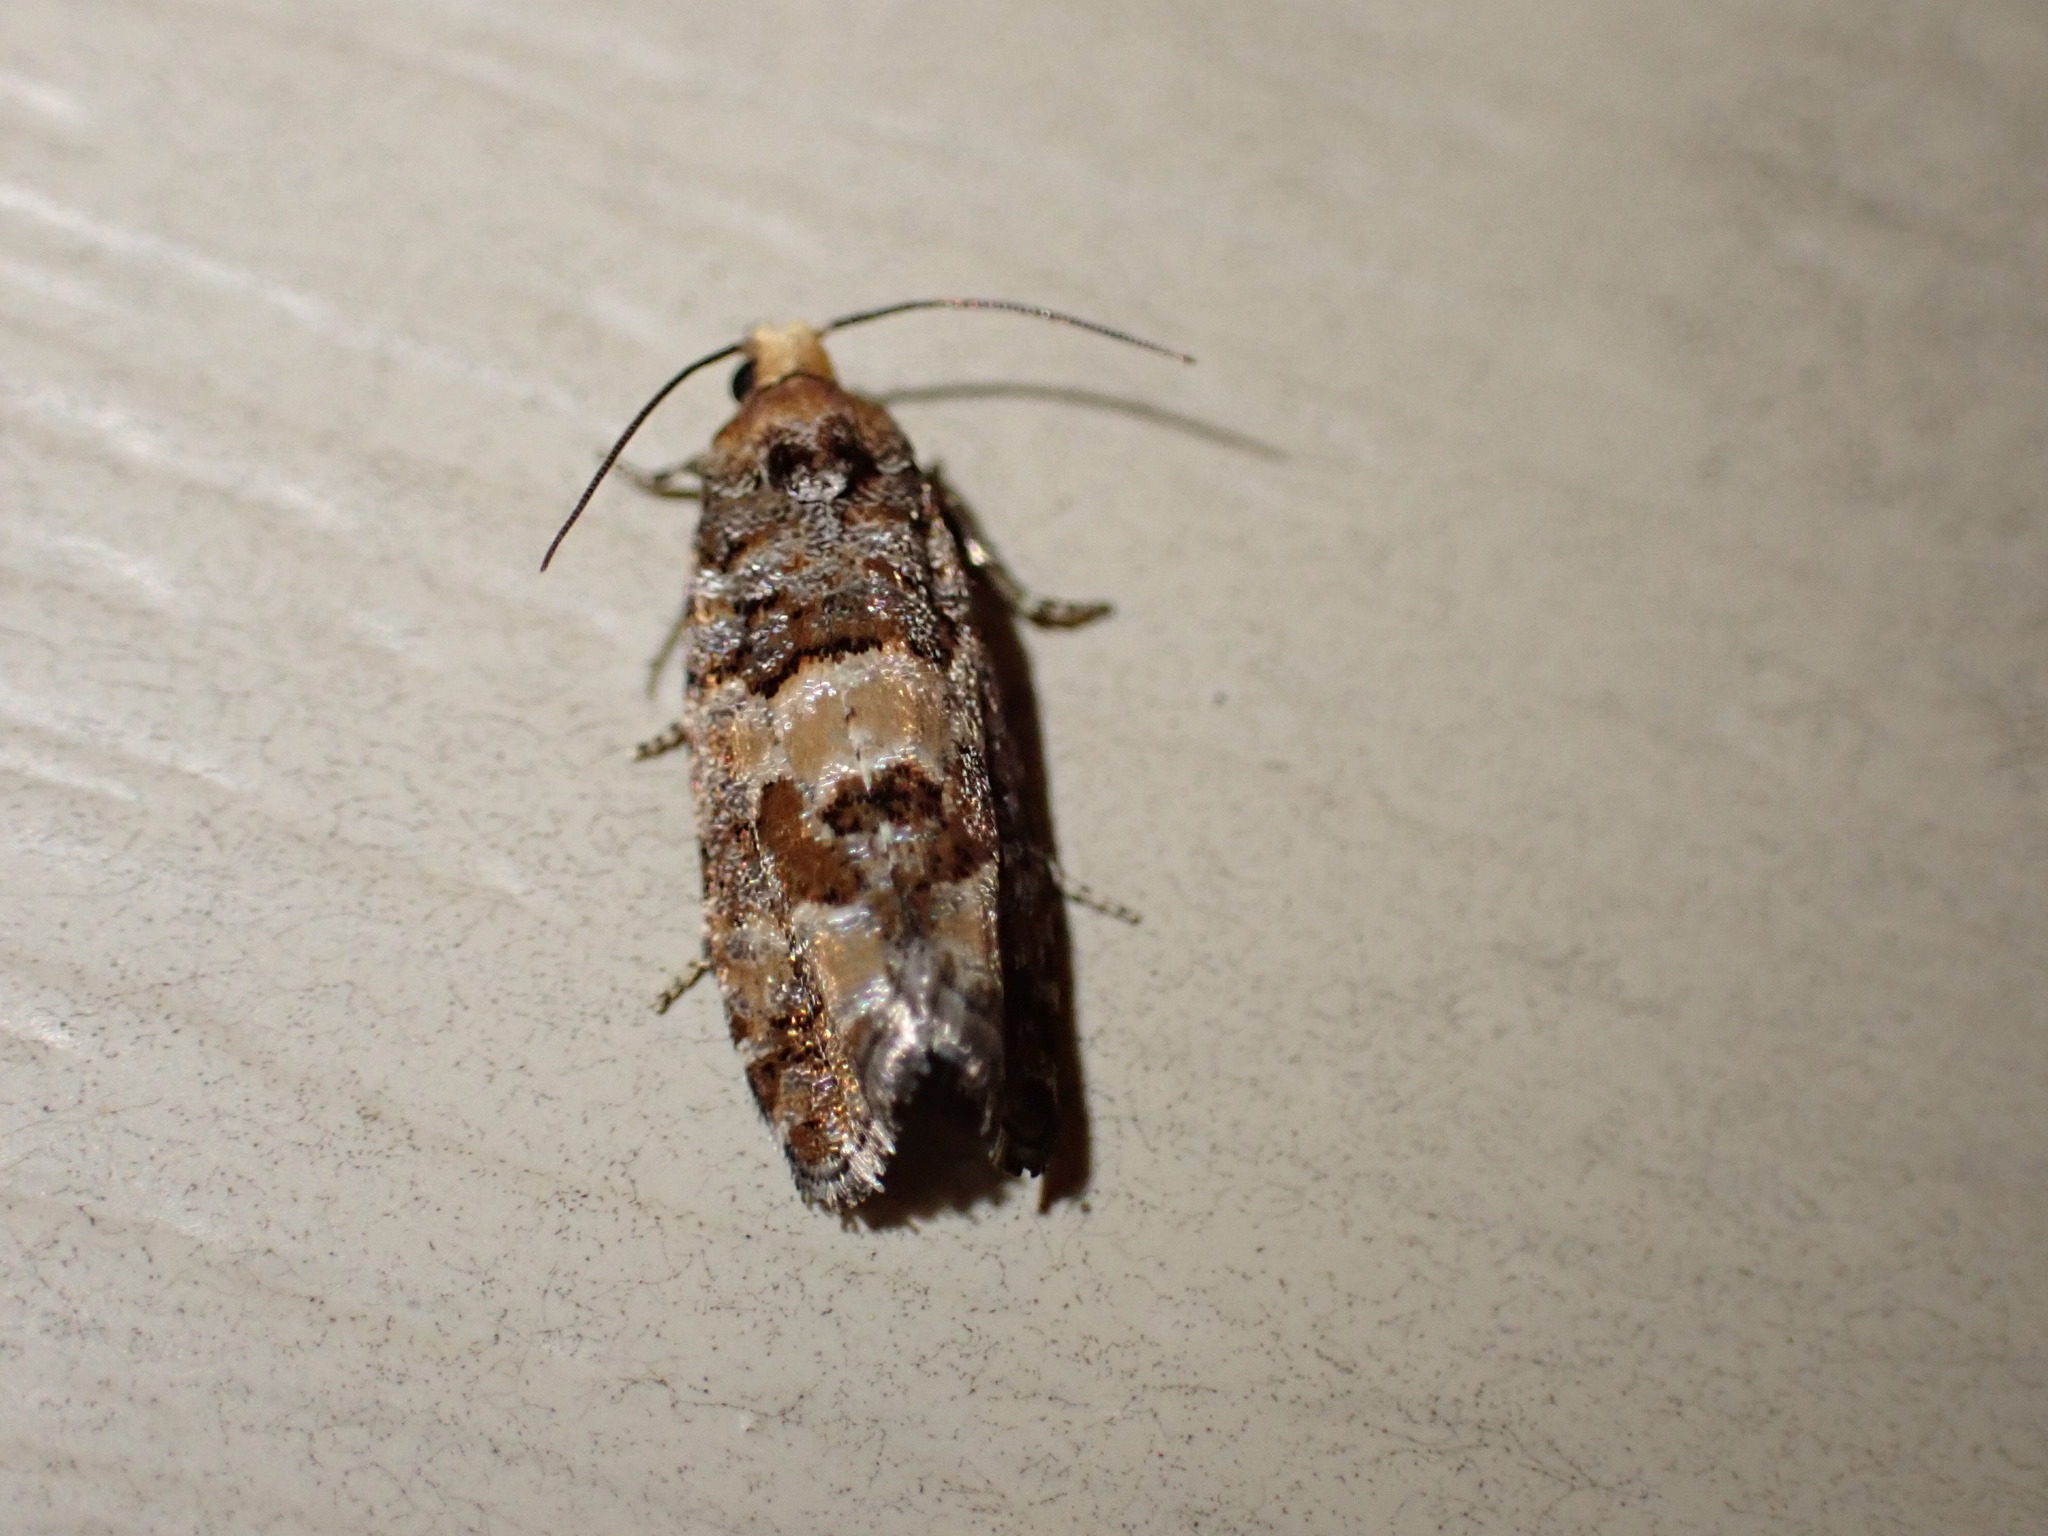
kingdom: Animalia
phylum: Arthropoda
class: Insecta
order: Lepidoptera
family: Tortricidae
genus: Eucopina
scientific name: Eucopina tocullionana
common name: White pinecone borer moth
